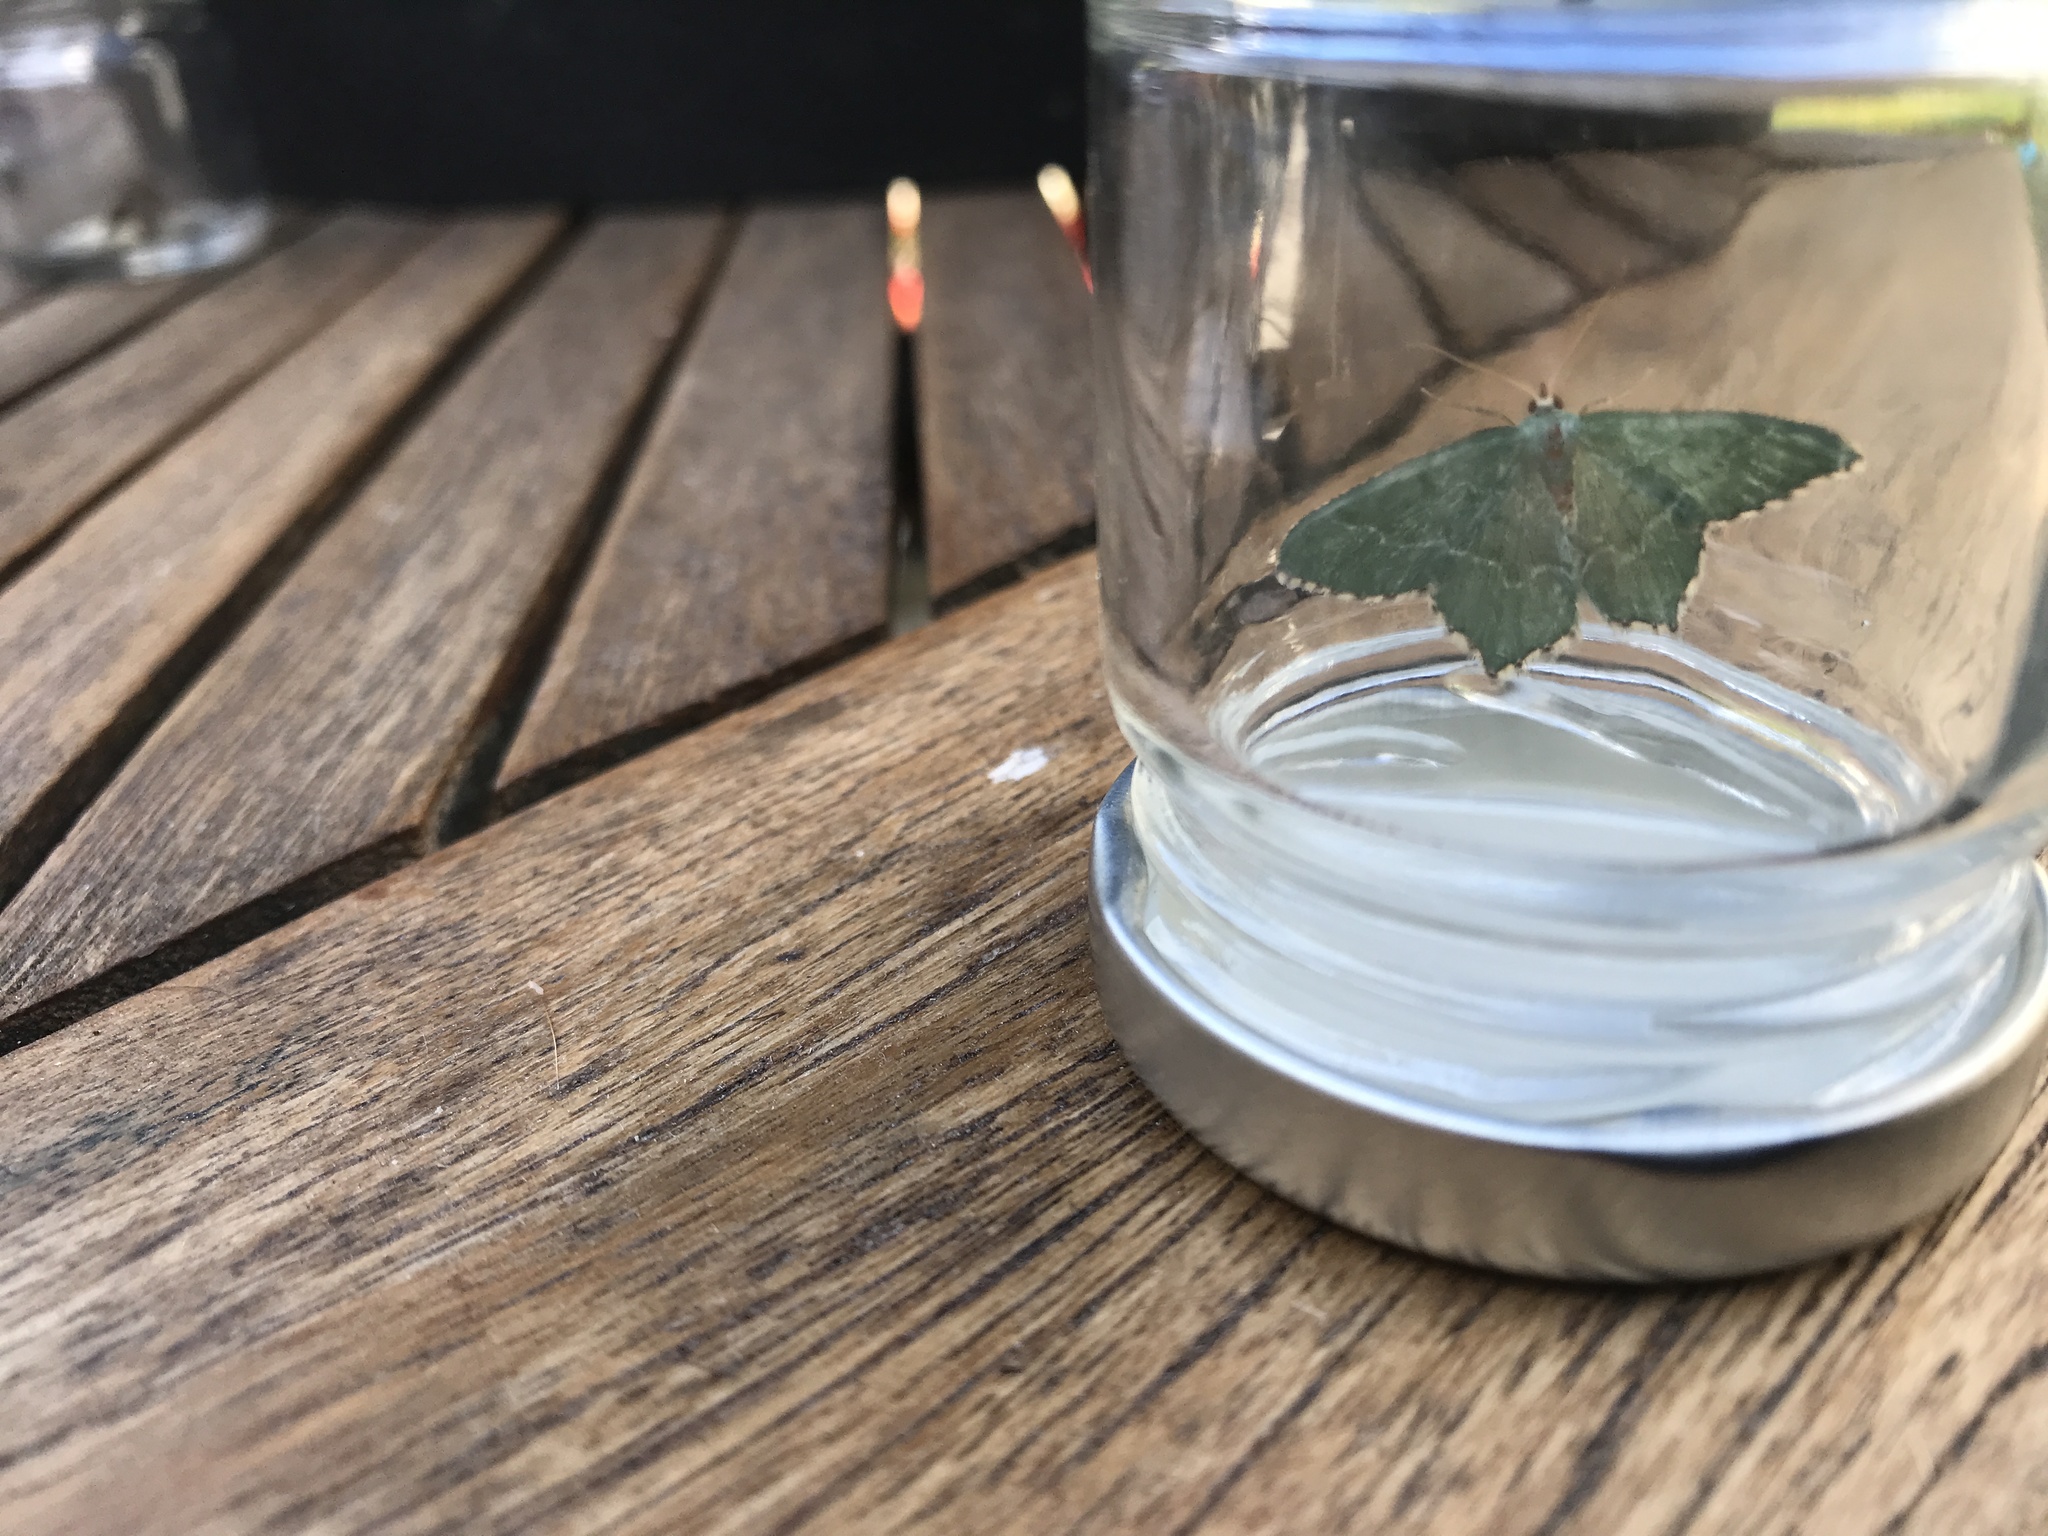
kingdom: Animalia
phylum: Arthropoda
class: Insecta
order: Lepidoptera
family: Geometridae
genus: Hemithea
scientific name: Hemithea aestivaria
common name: Common emerald
